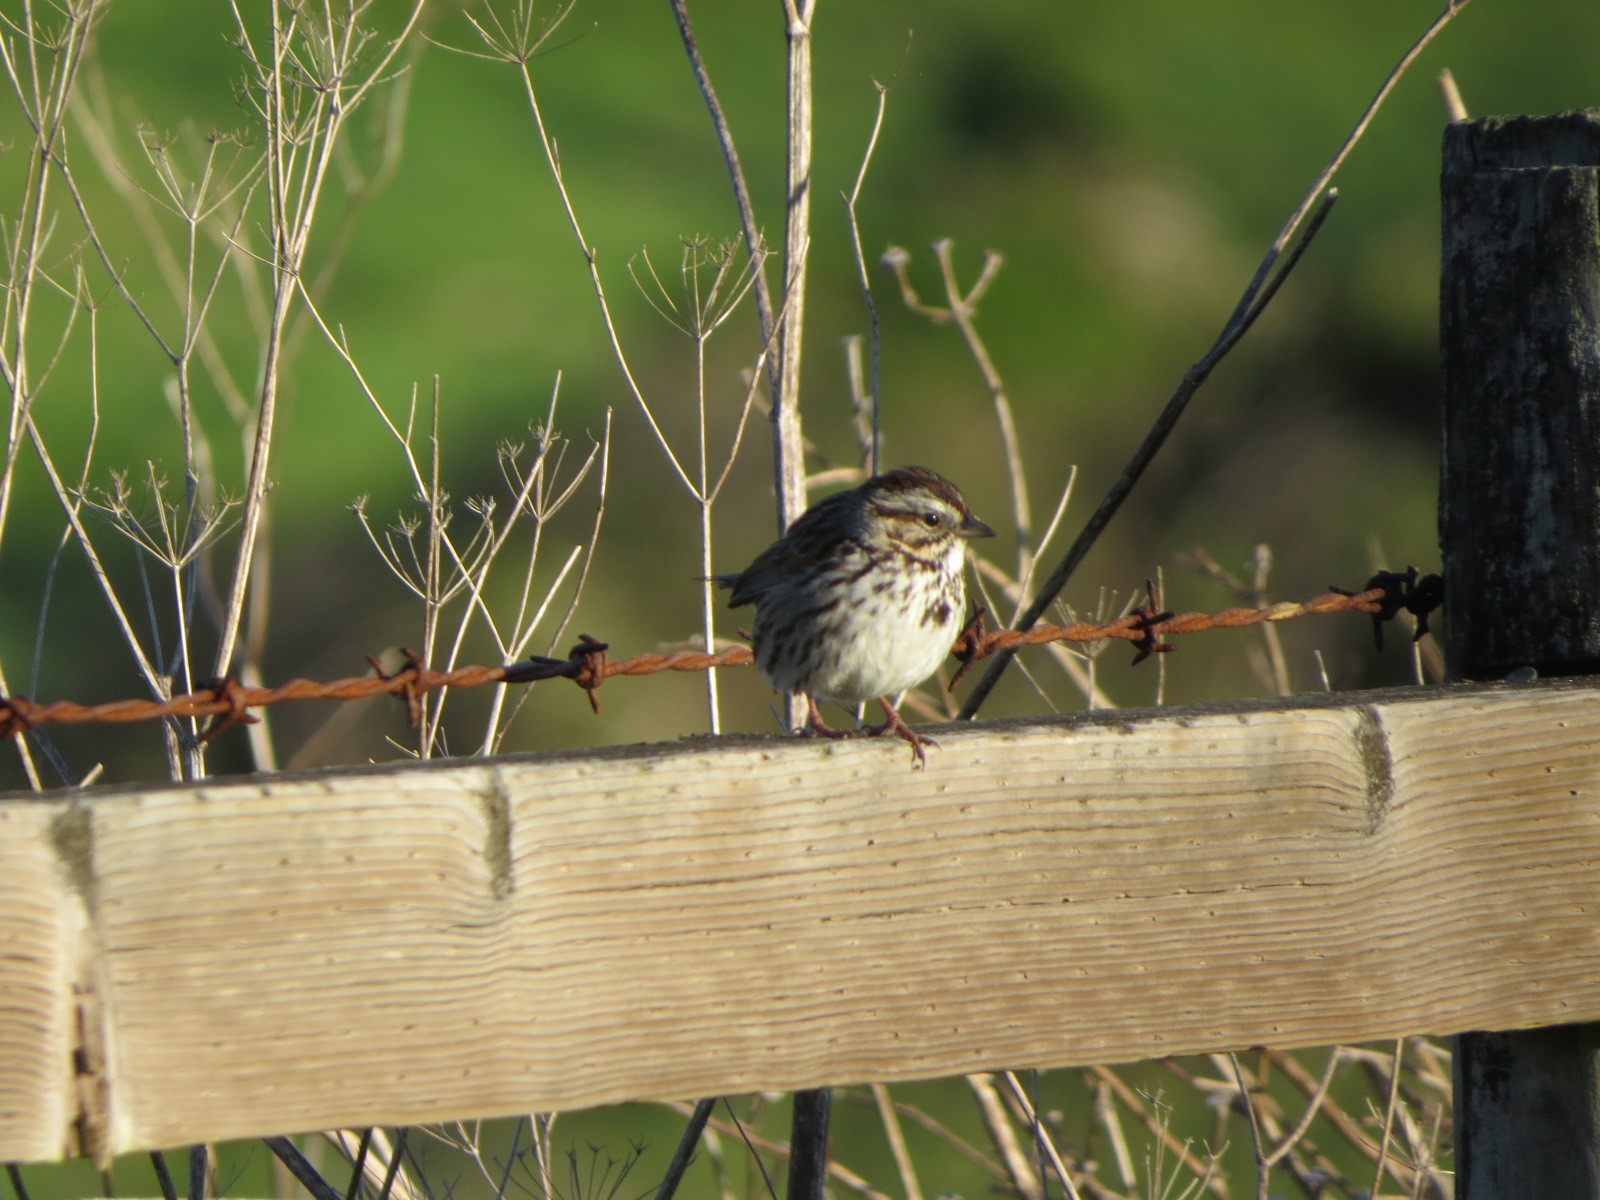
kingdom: Animalia
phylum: Chordata
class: Aves
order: Passeriformes
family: Passerellidae
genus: Melospiza
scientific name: Melospiza melodia
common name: Song sparrow
